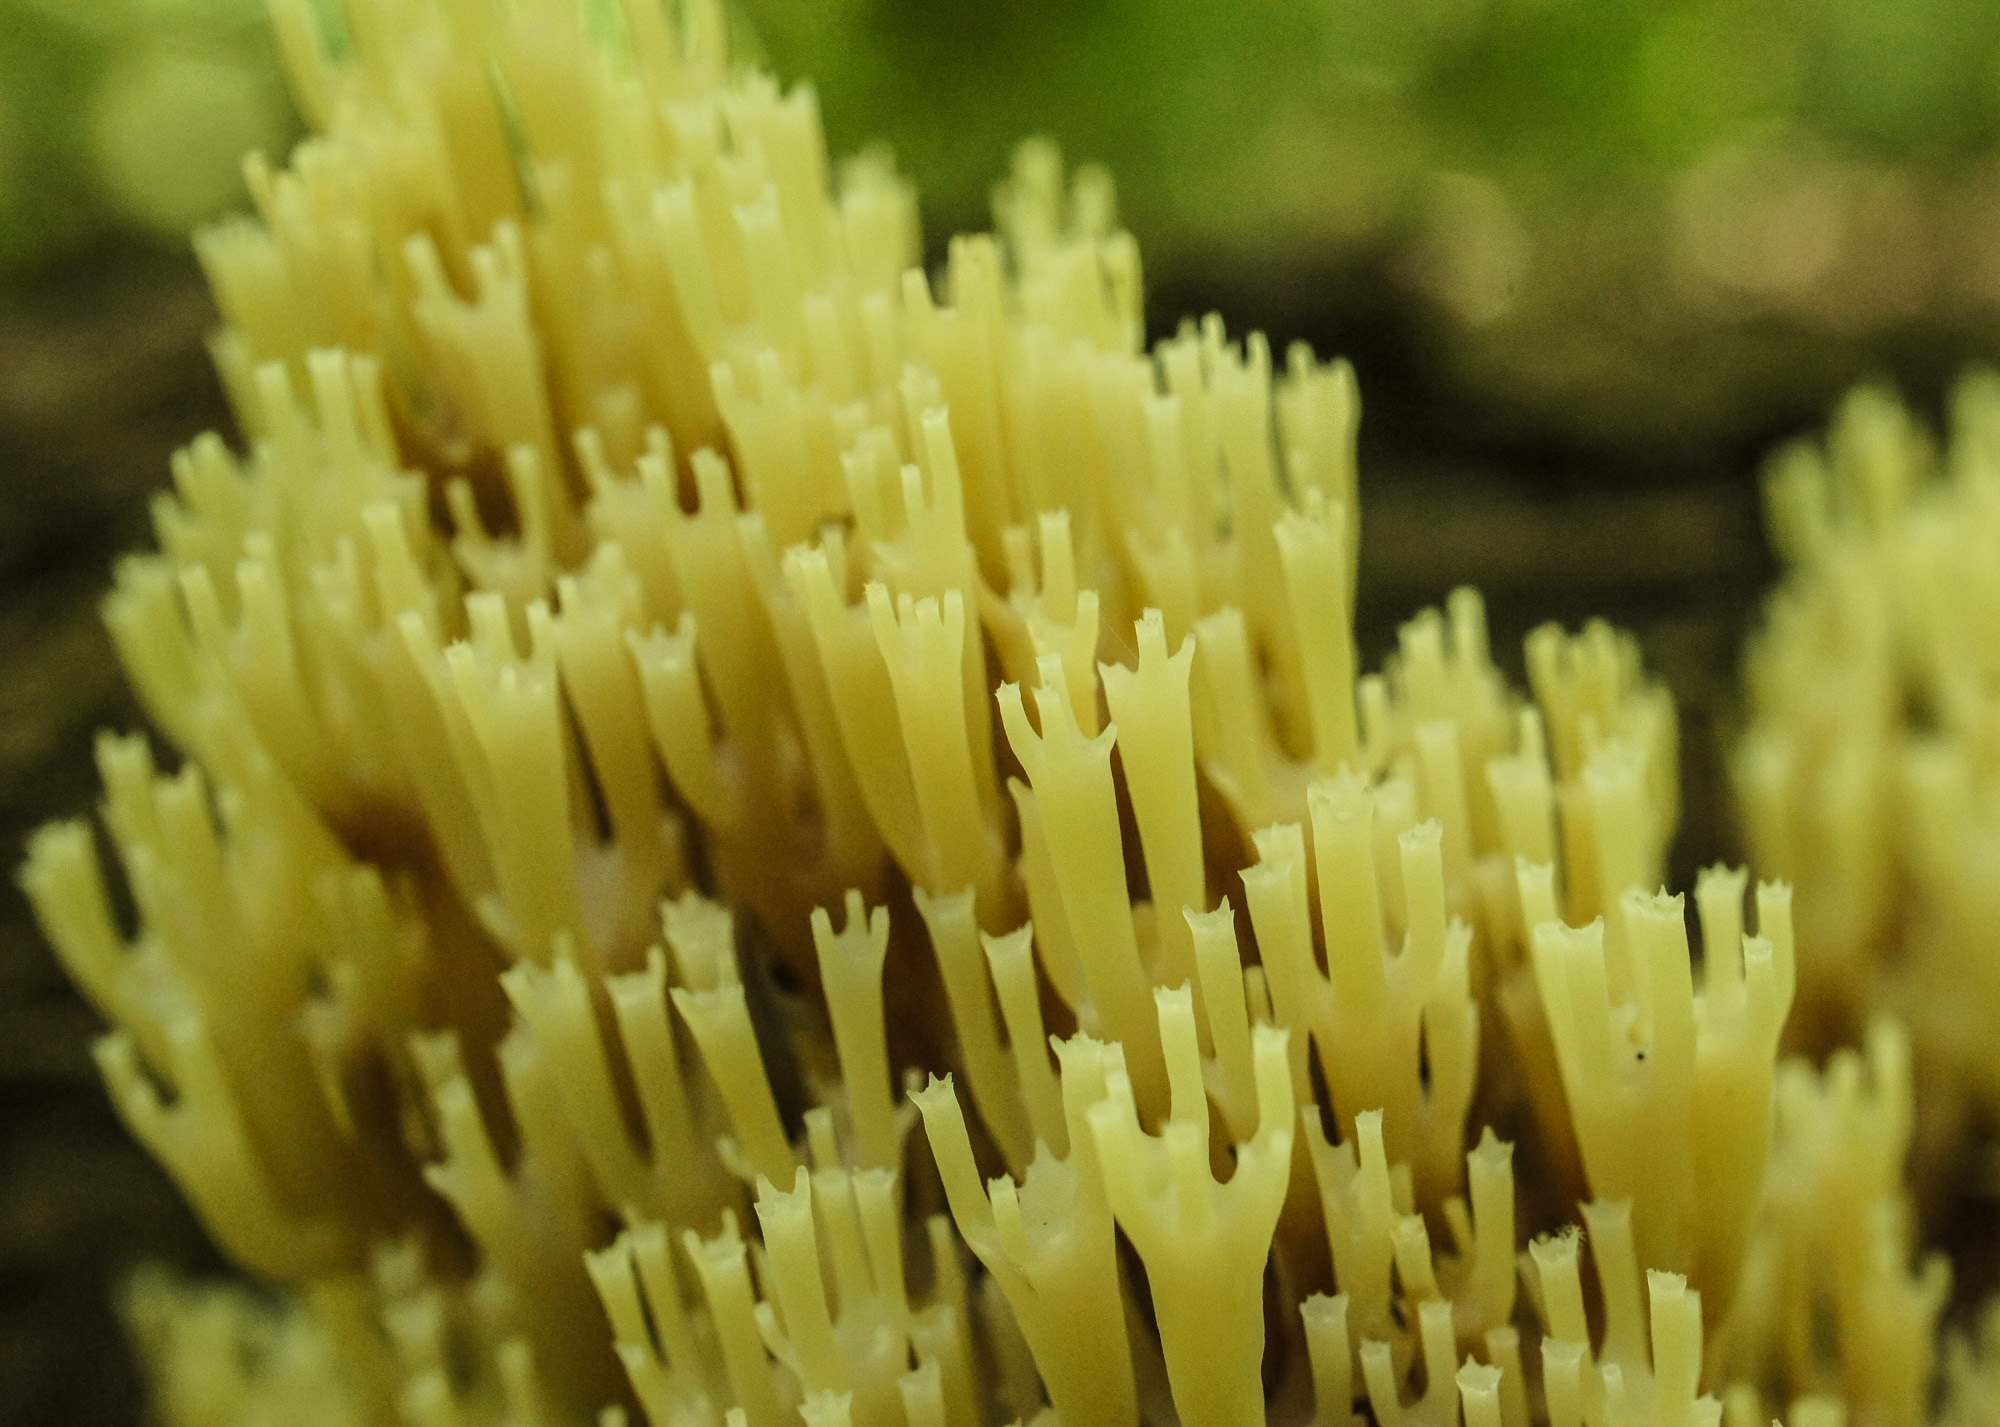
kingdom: Fungi
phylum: Basidiomycota
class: Agaricomycetes
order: Russulales
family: Auriscalpiaceae
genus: Artomyces
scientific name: Artomyces pyxidatus
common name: Crown-tipped coral fungus
